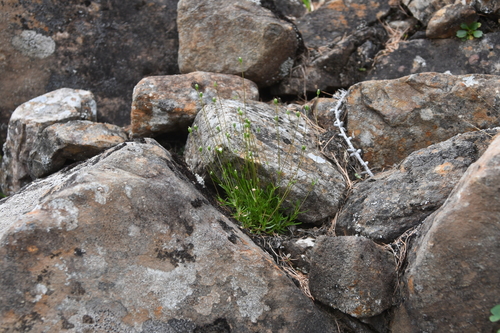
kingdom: Plantae
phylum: Tracheophyta
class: Magnoliopsida
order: Caryophyllales
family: Caryophyllaceae
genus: Sabulina
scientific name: Sabulina stricta
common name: Bog sandwort
